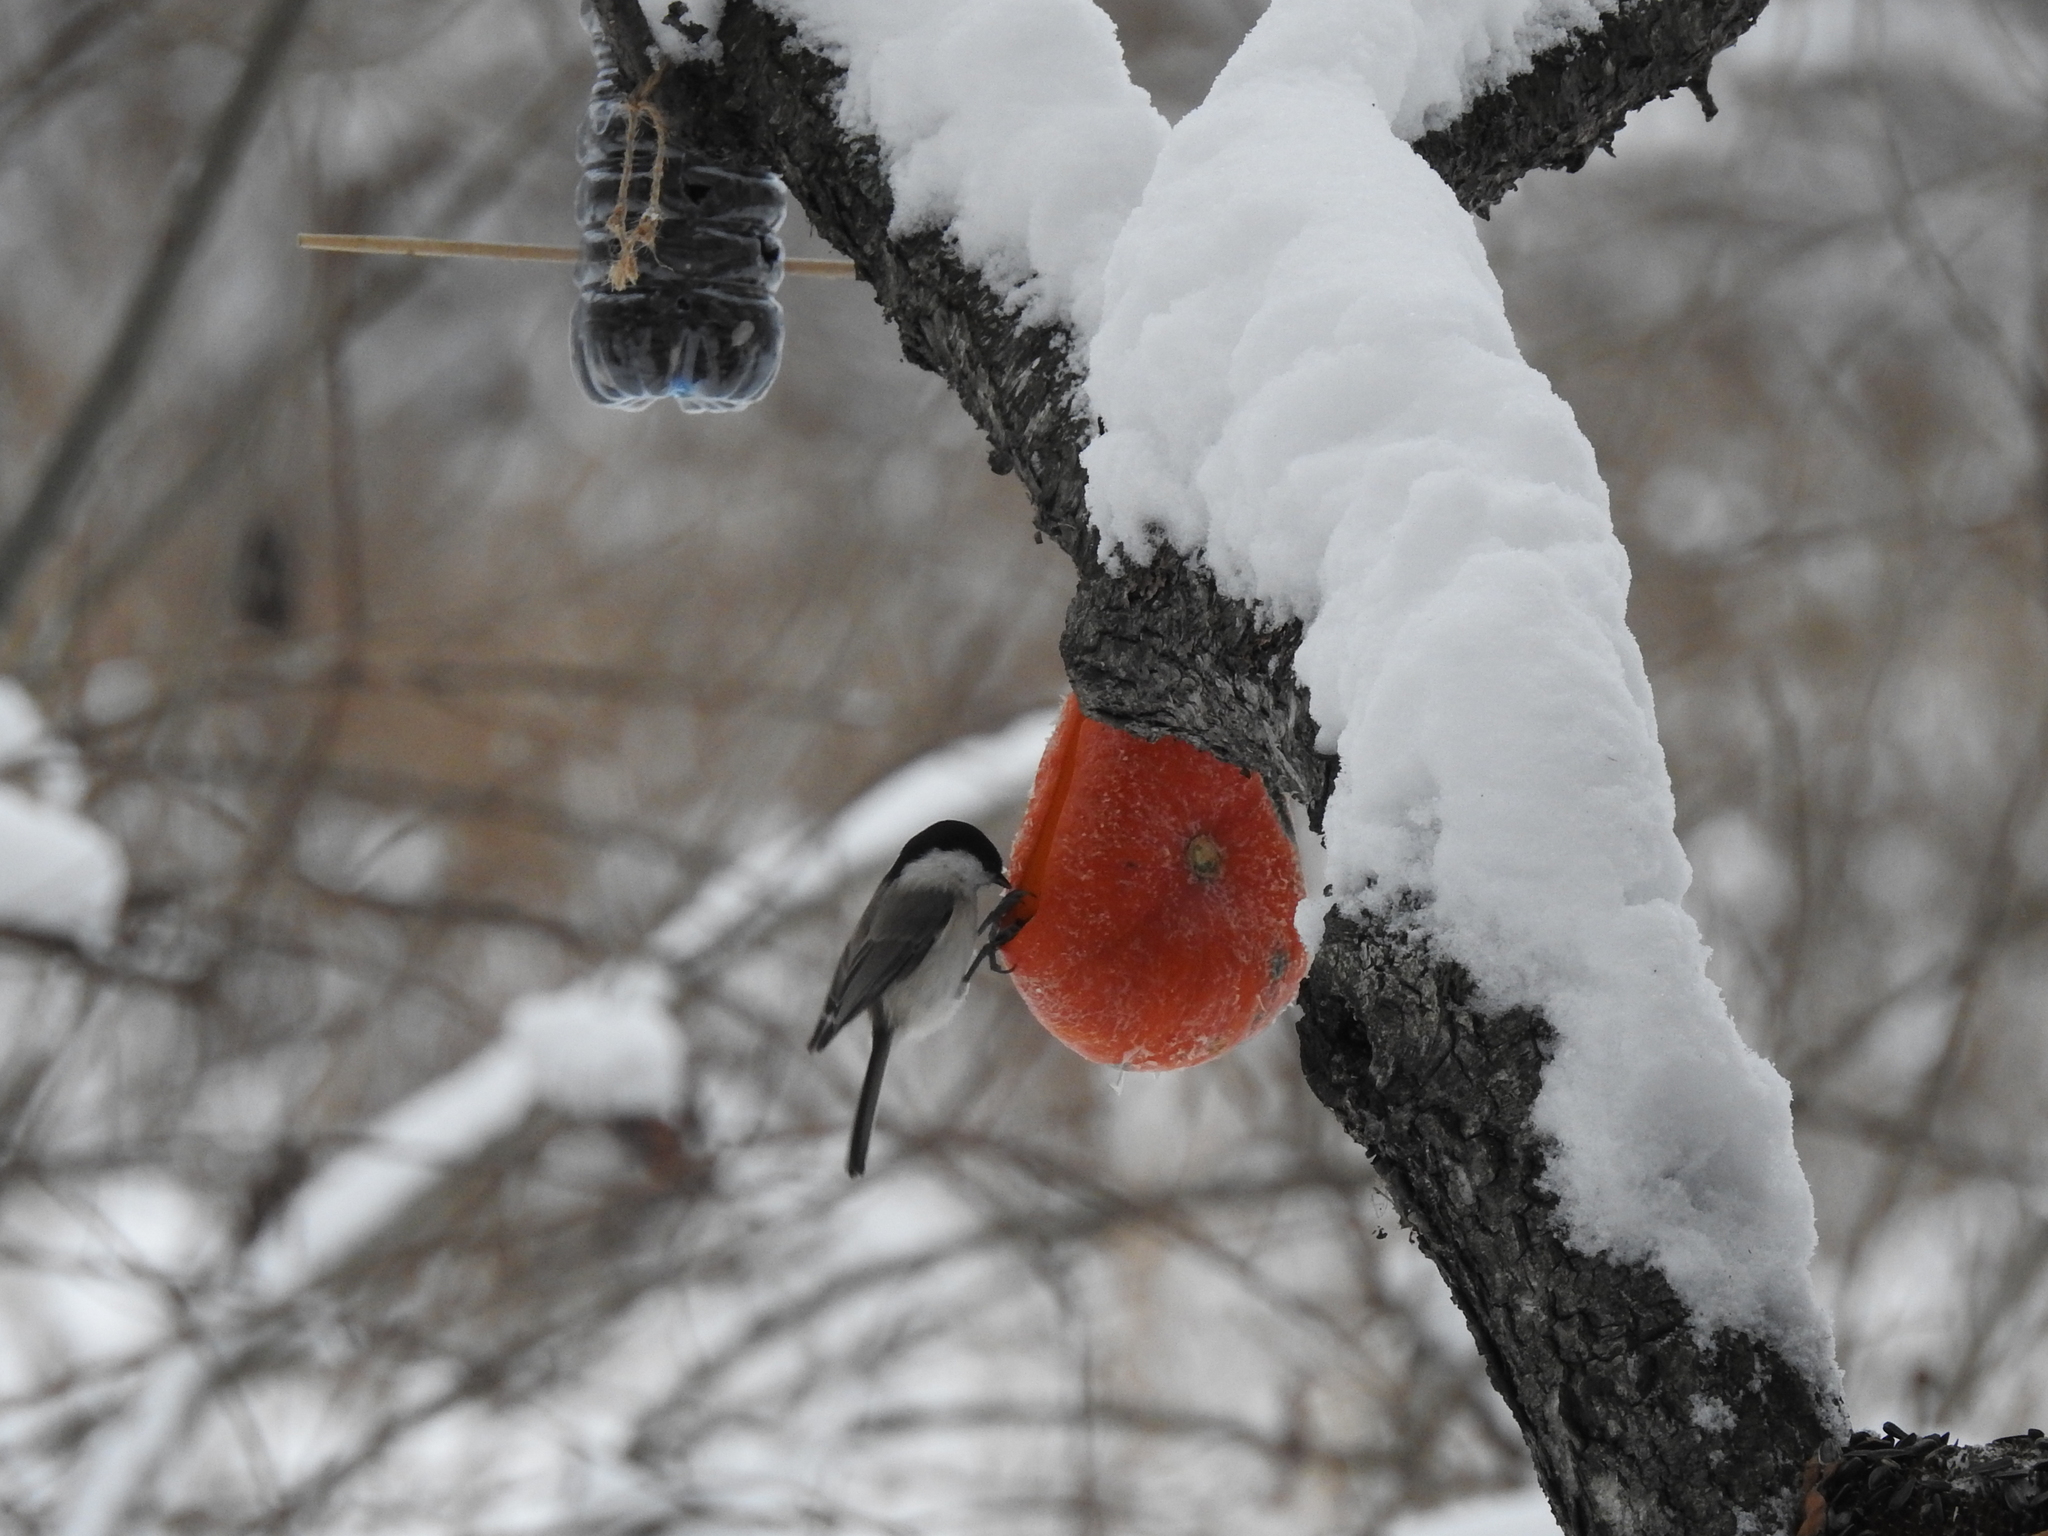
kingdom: Animalia
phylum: Chordata
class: Aves
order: Passeriformes
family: Paridae
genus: Poecile
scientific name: Poecile palustris
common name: Marsh tit
